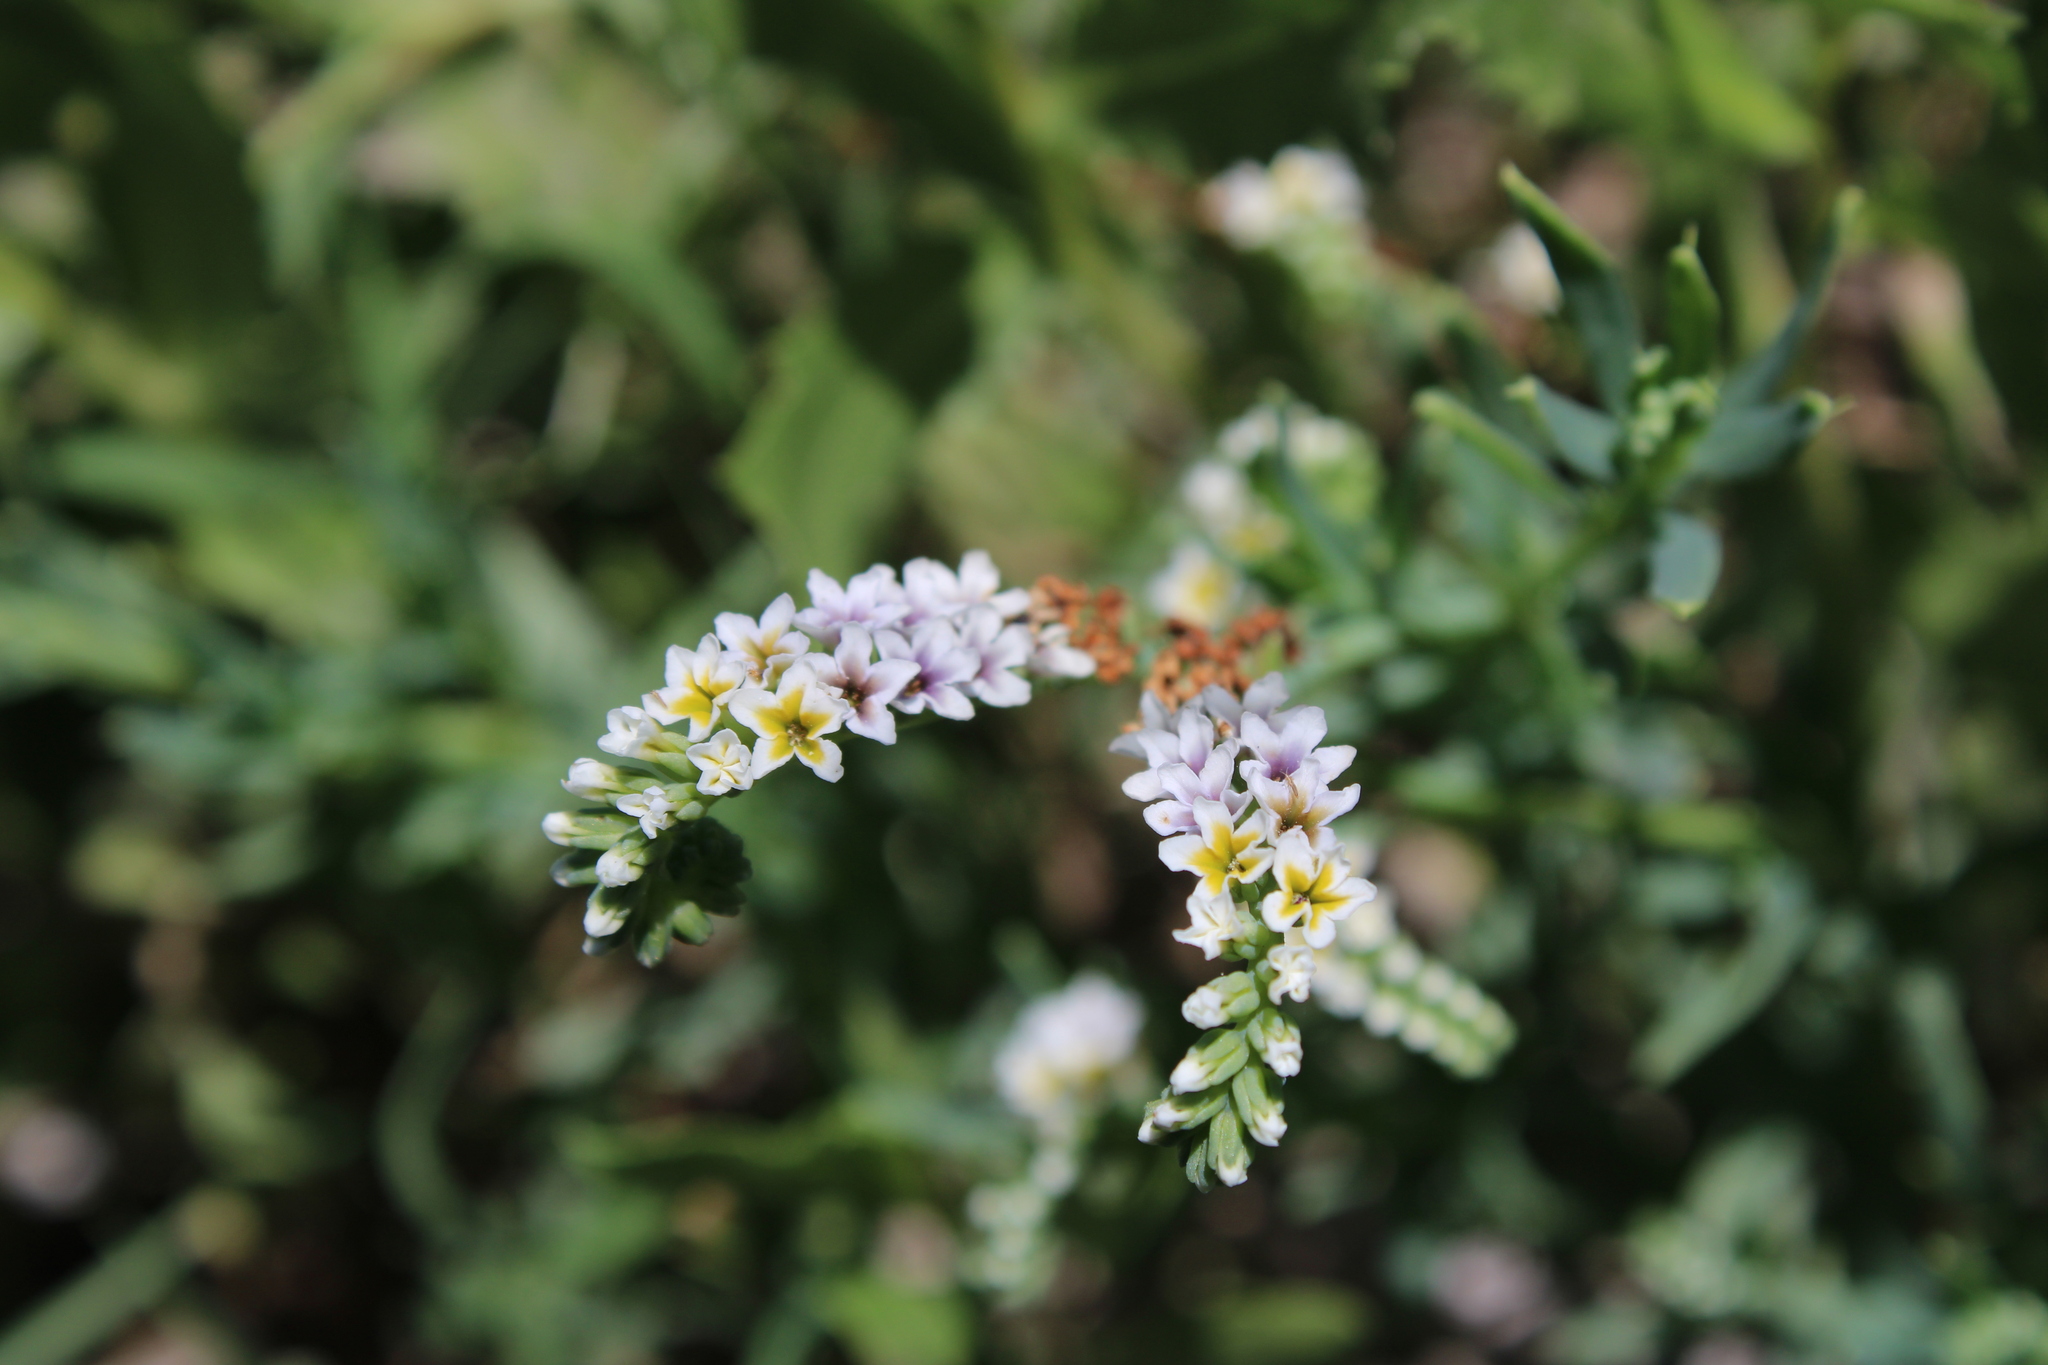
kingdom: Plantae
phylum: Tracheophyta
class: Magnoliopsida
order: Boraginales
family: Heliotropiaceae
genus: Heliotropium
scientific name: Heliotropium curassavicum
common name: Seaside heliotrope
